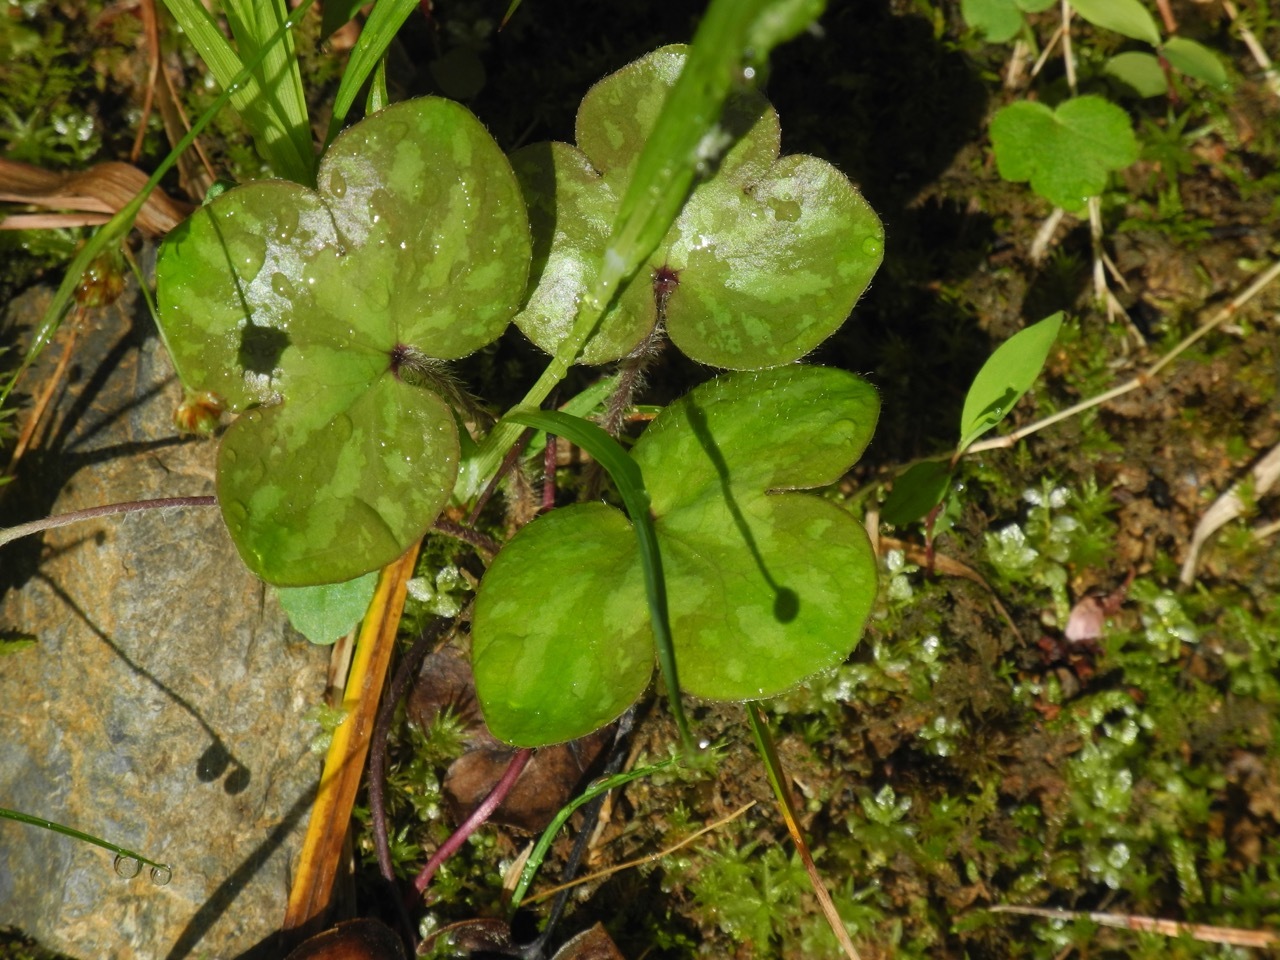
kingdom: Plantae
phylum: Tracheophyta
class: Magnoliopsida
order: Ranunculales
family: Ranunculaceae
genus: Hepatica
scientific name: Hepatica americana
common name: American hepatica
